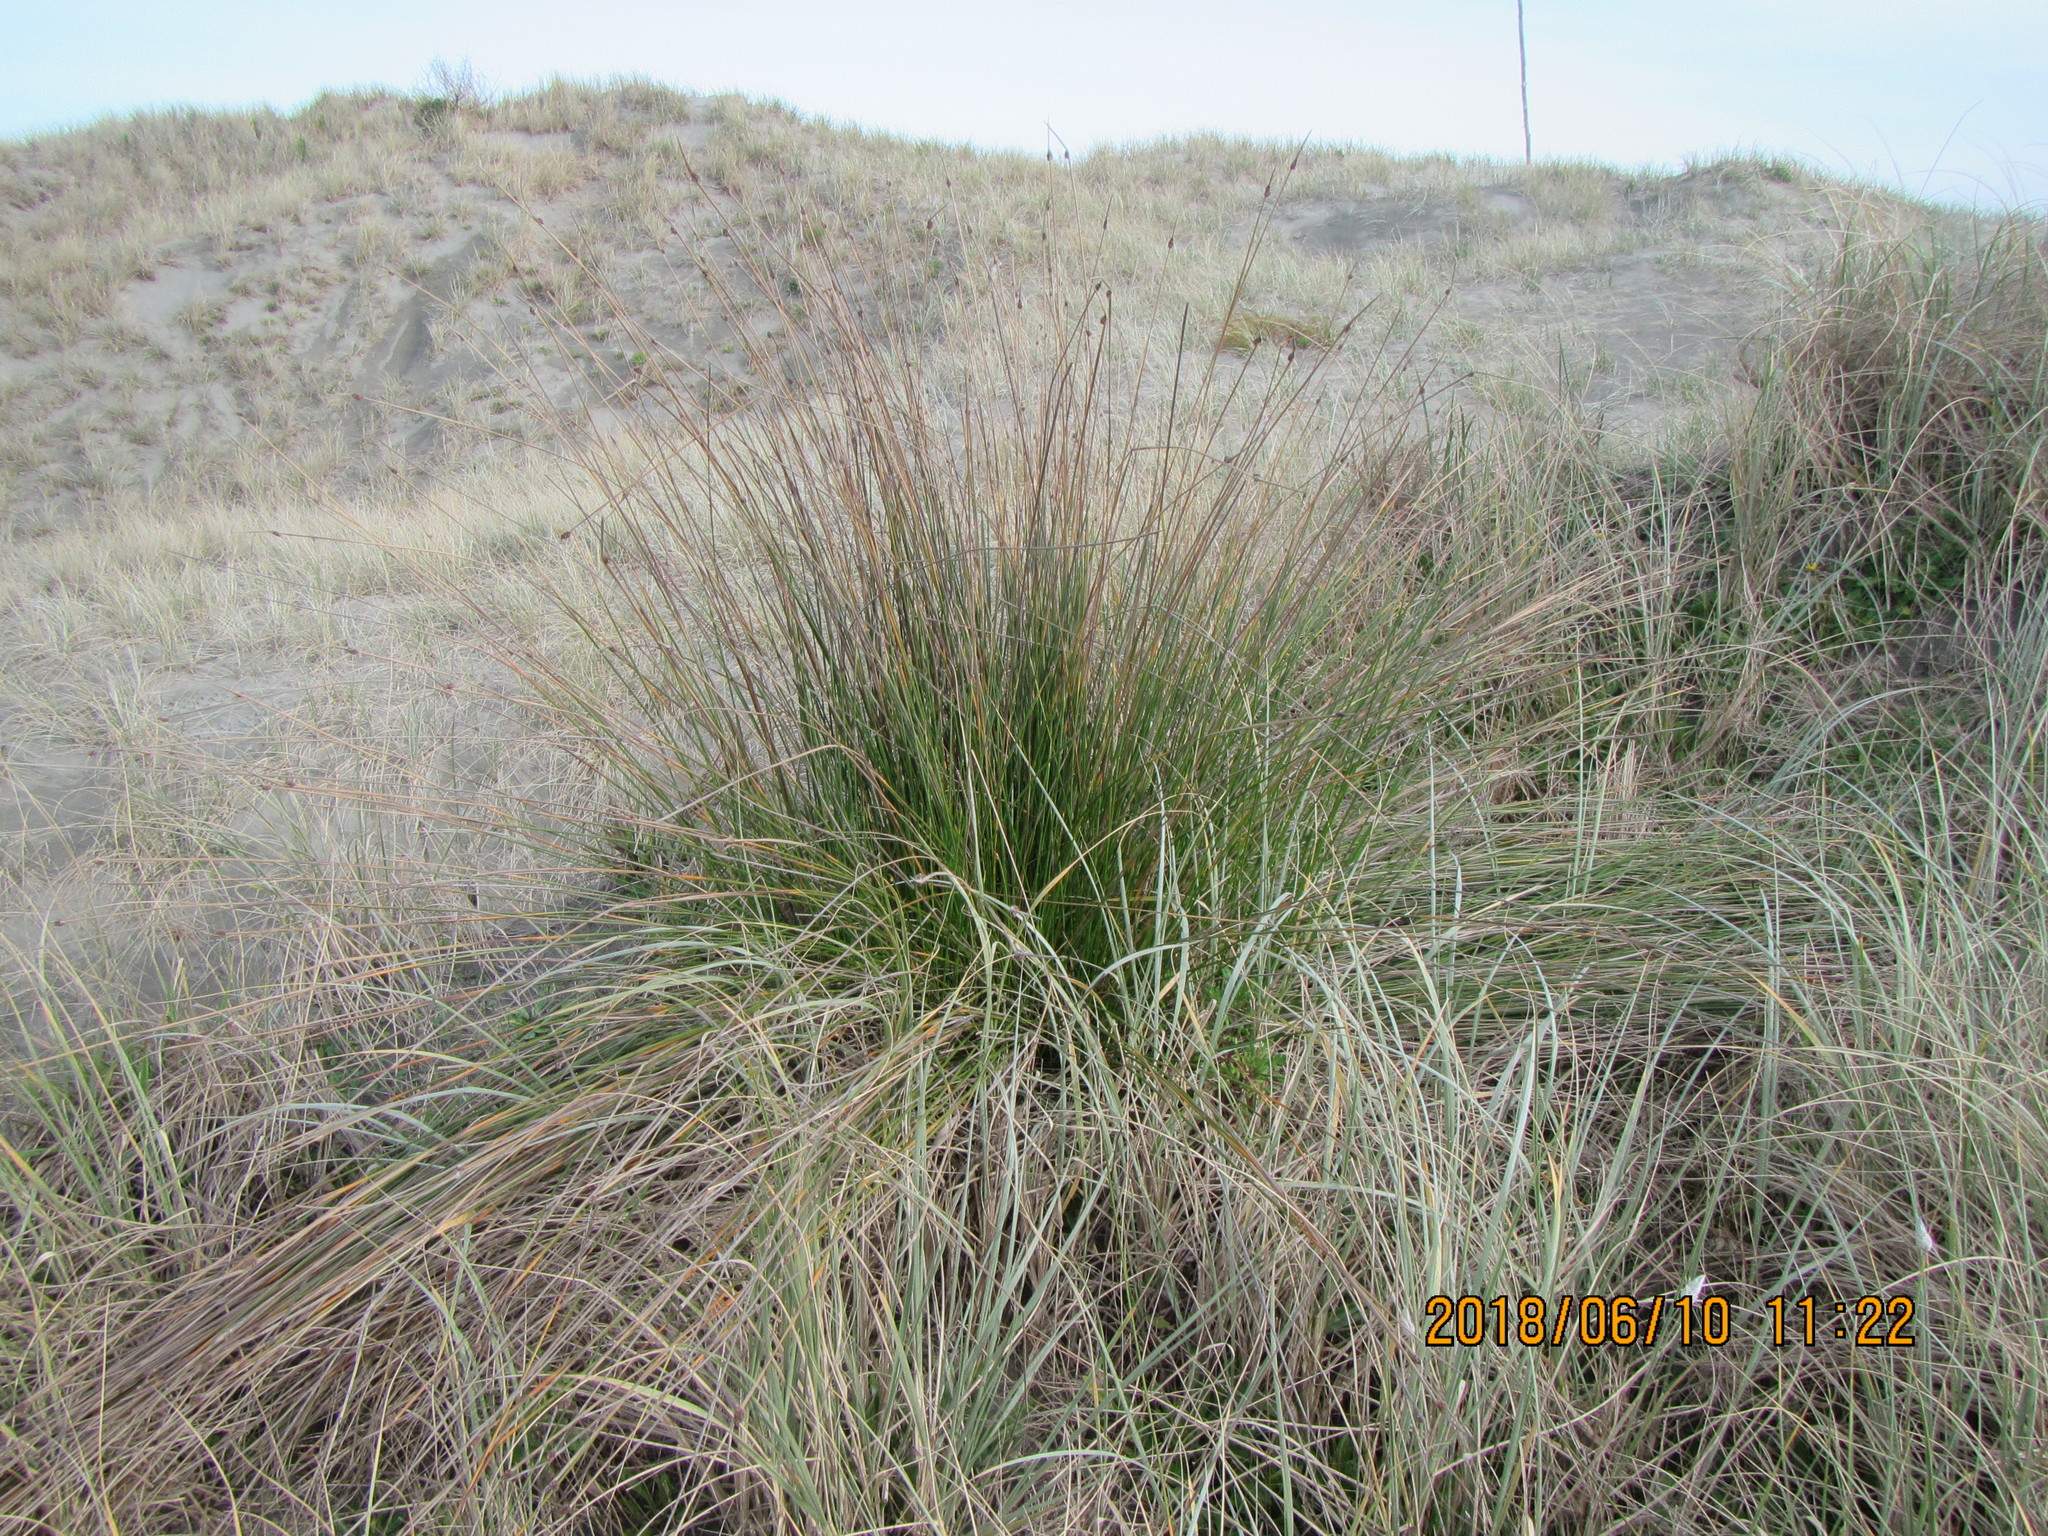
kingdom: Plantae
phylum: Tracheophyta
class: Liliopsida
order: Poales
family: Cyperaceae
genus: Ficinia
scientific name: Ficinia nodosa
